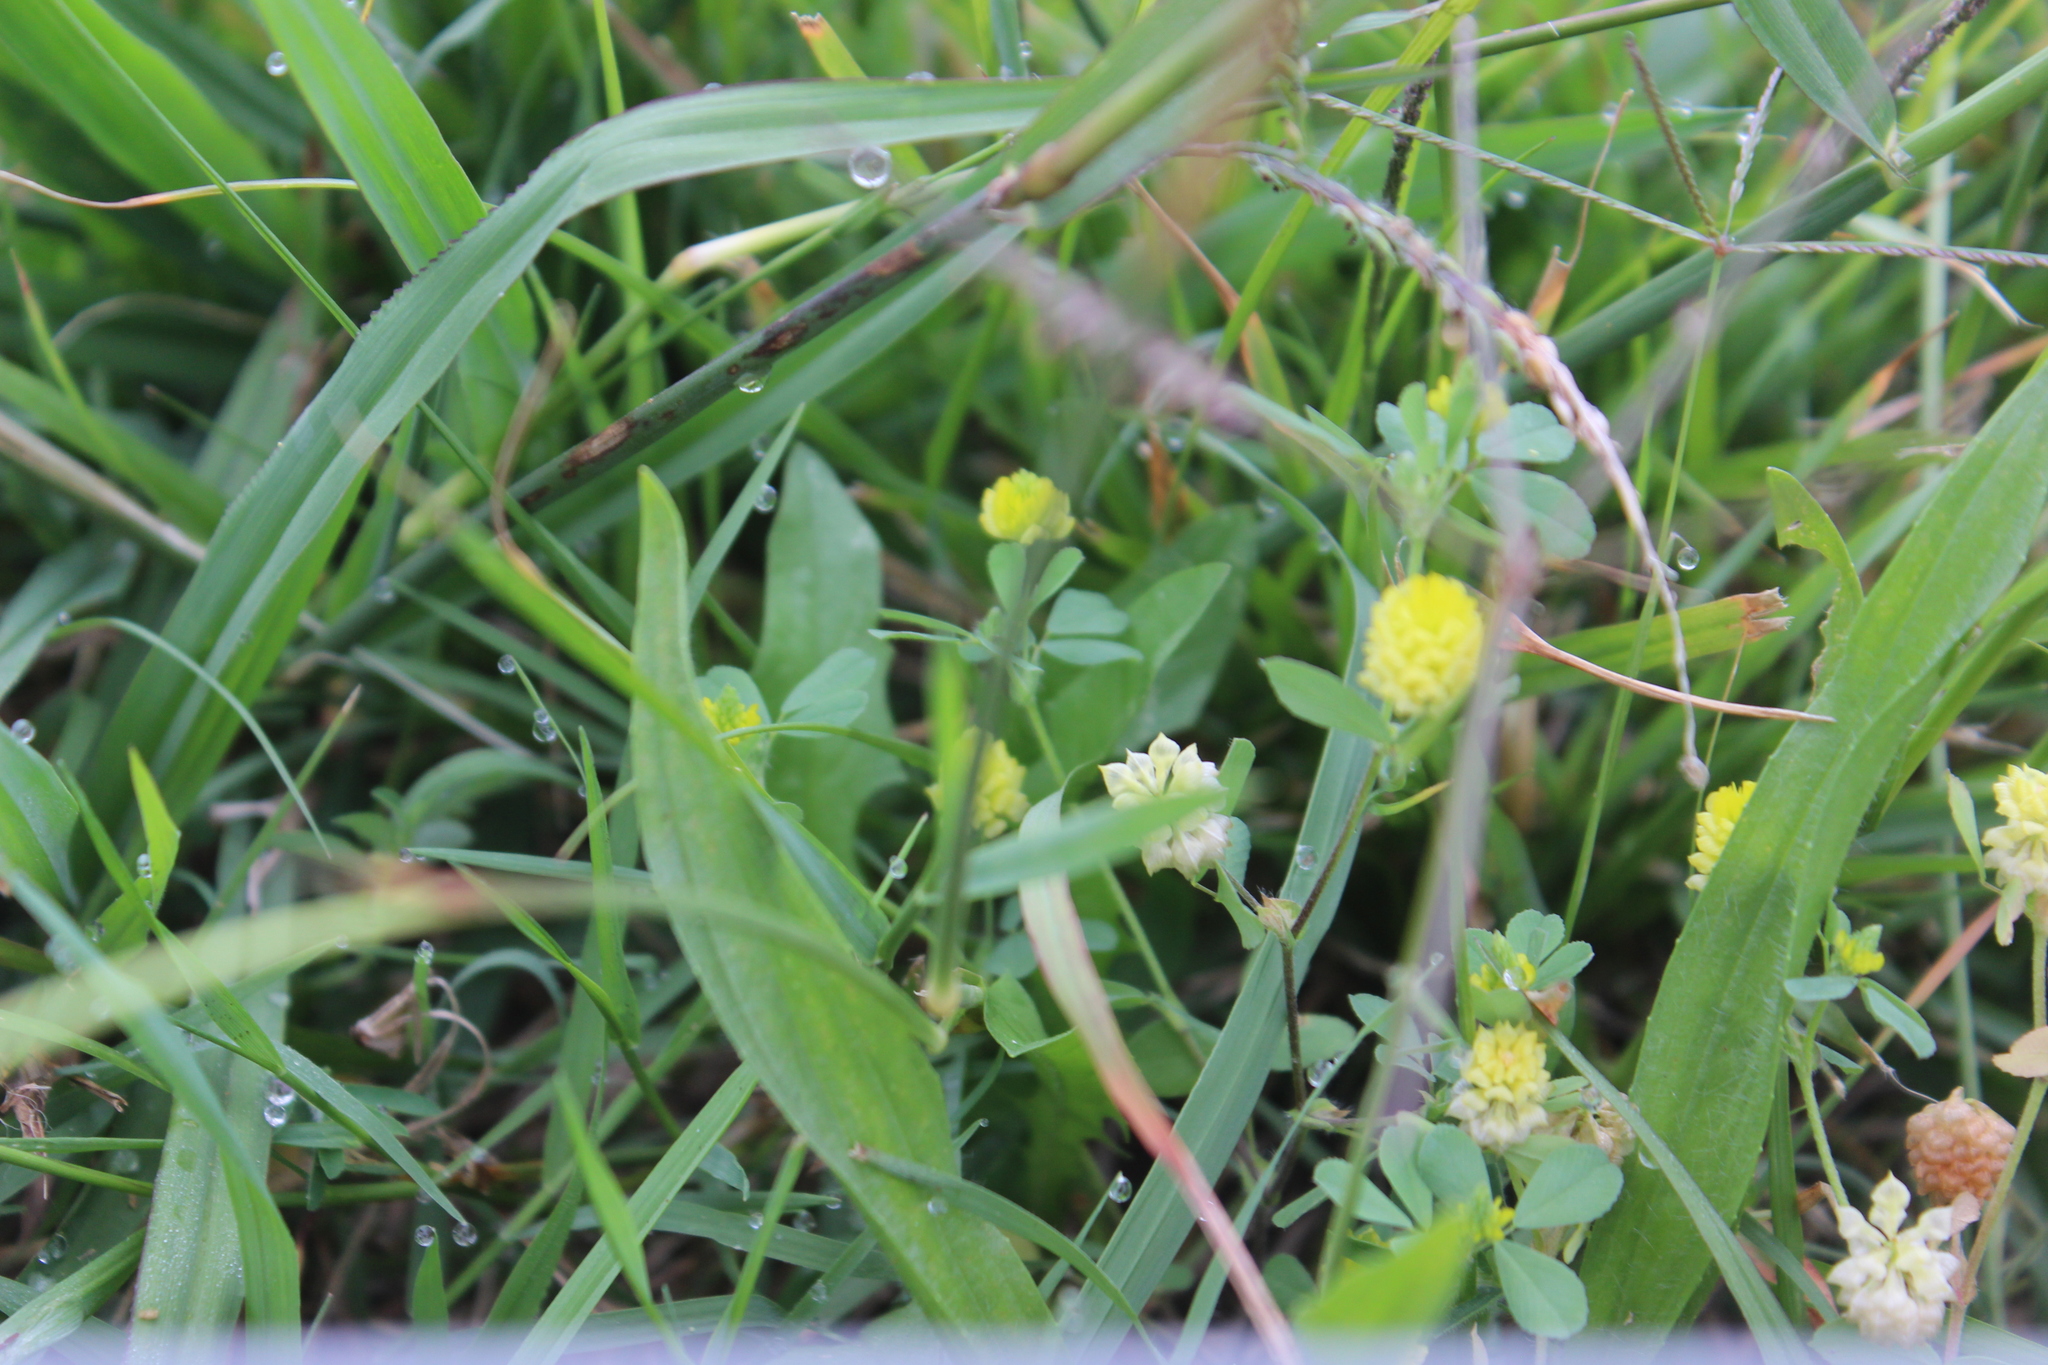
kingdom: Plantae
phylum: Tracheophyta
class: Magnoliopsida
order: Fabales
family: Fabaceae
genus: Trifolium
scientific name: Trifolium campestre
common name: Field clover
